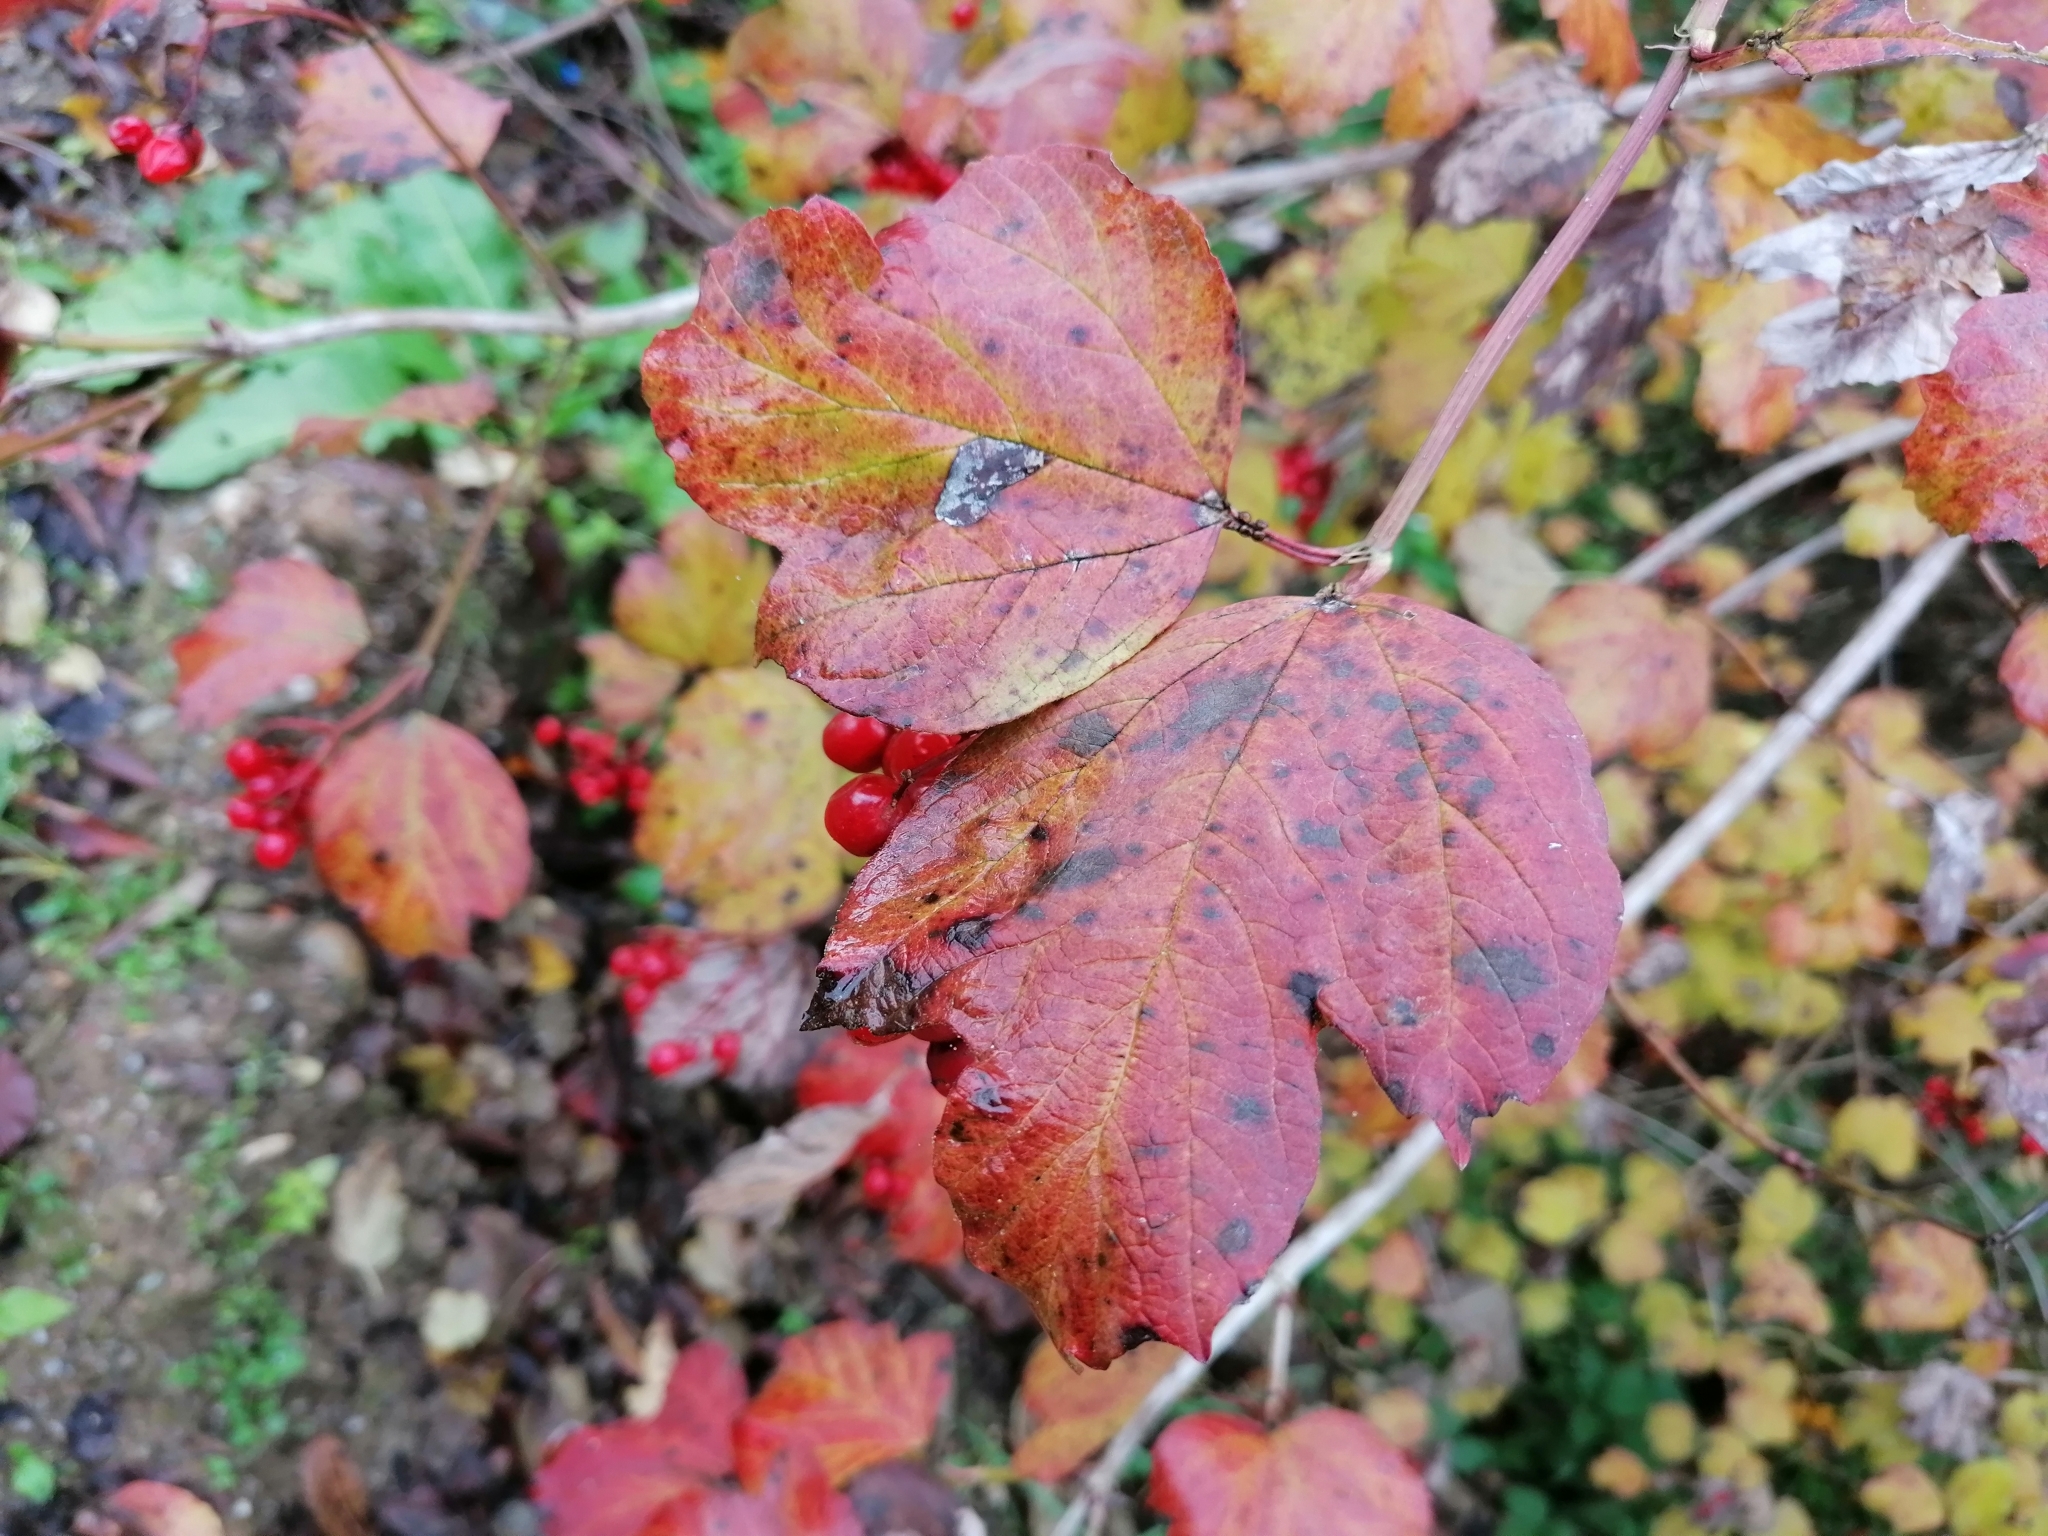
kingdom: Plantae
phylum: Tracheophyta
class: Magnoliopsida
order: Dipsacales
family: Viburnaceae
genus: Viburnum
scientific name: Viburnum opulus
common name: Guelder-rose
